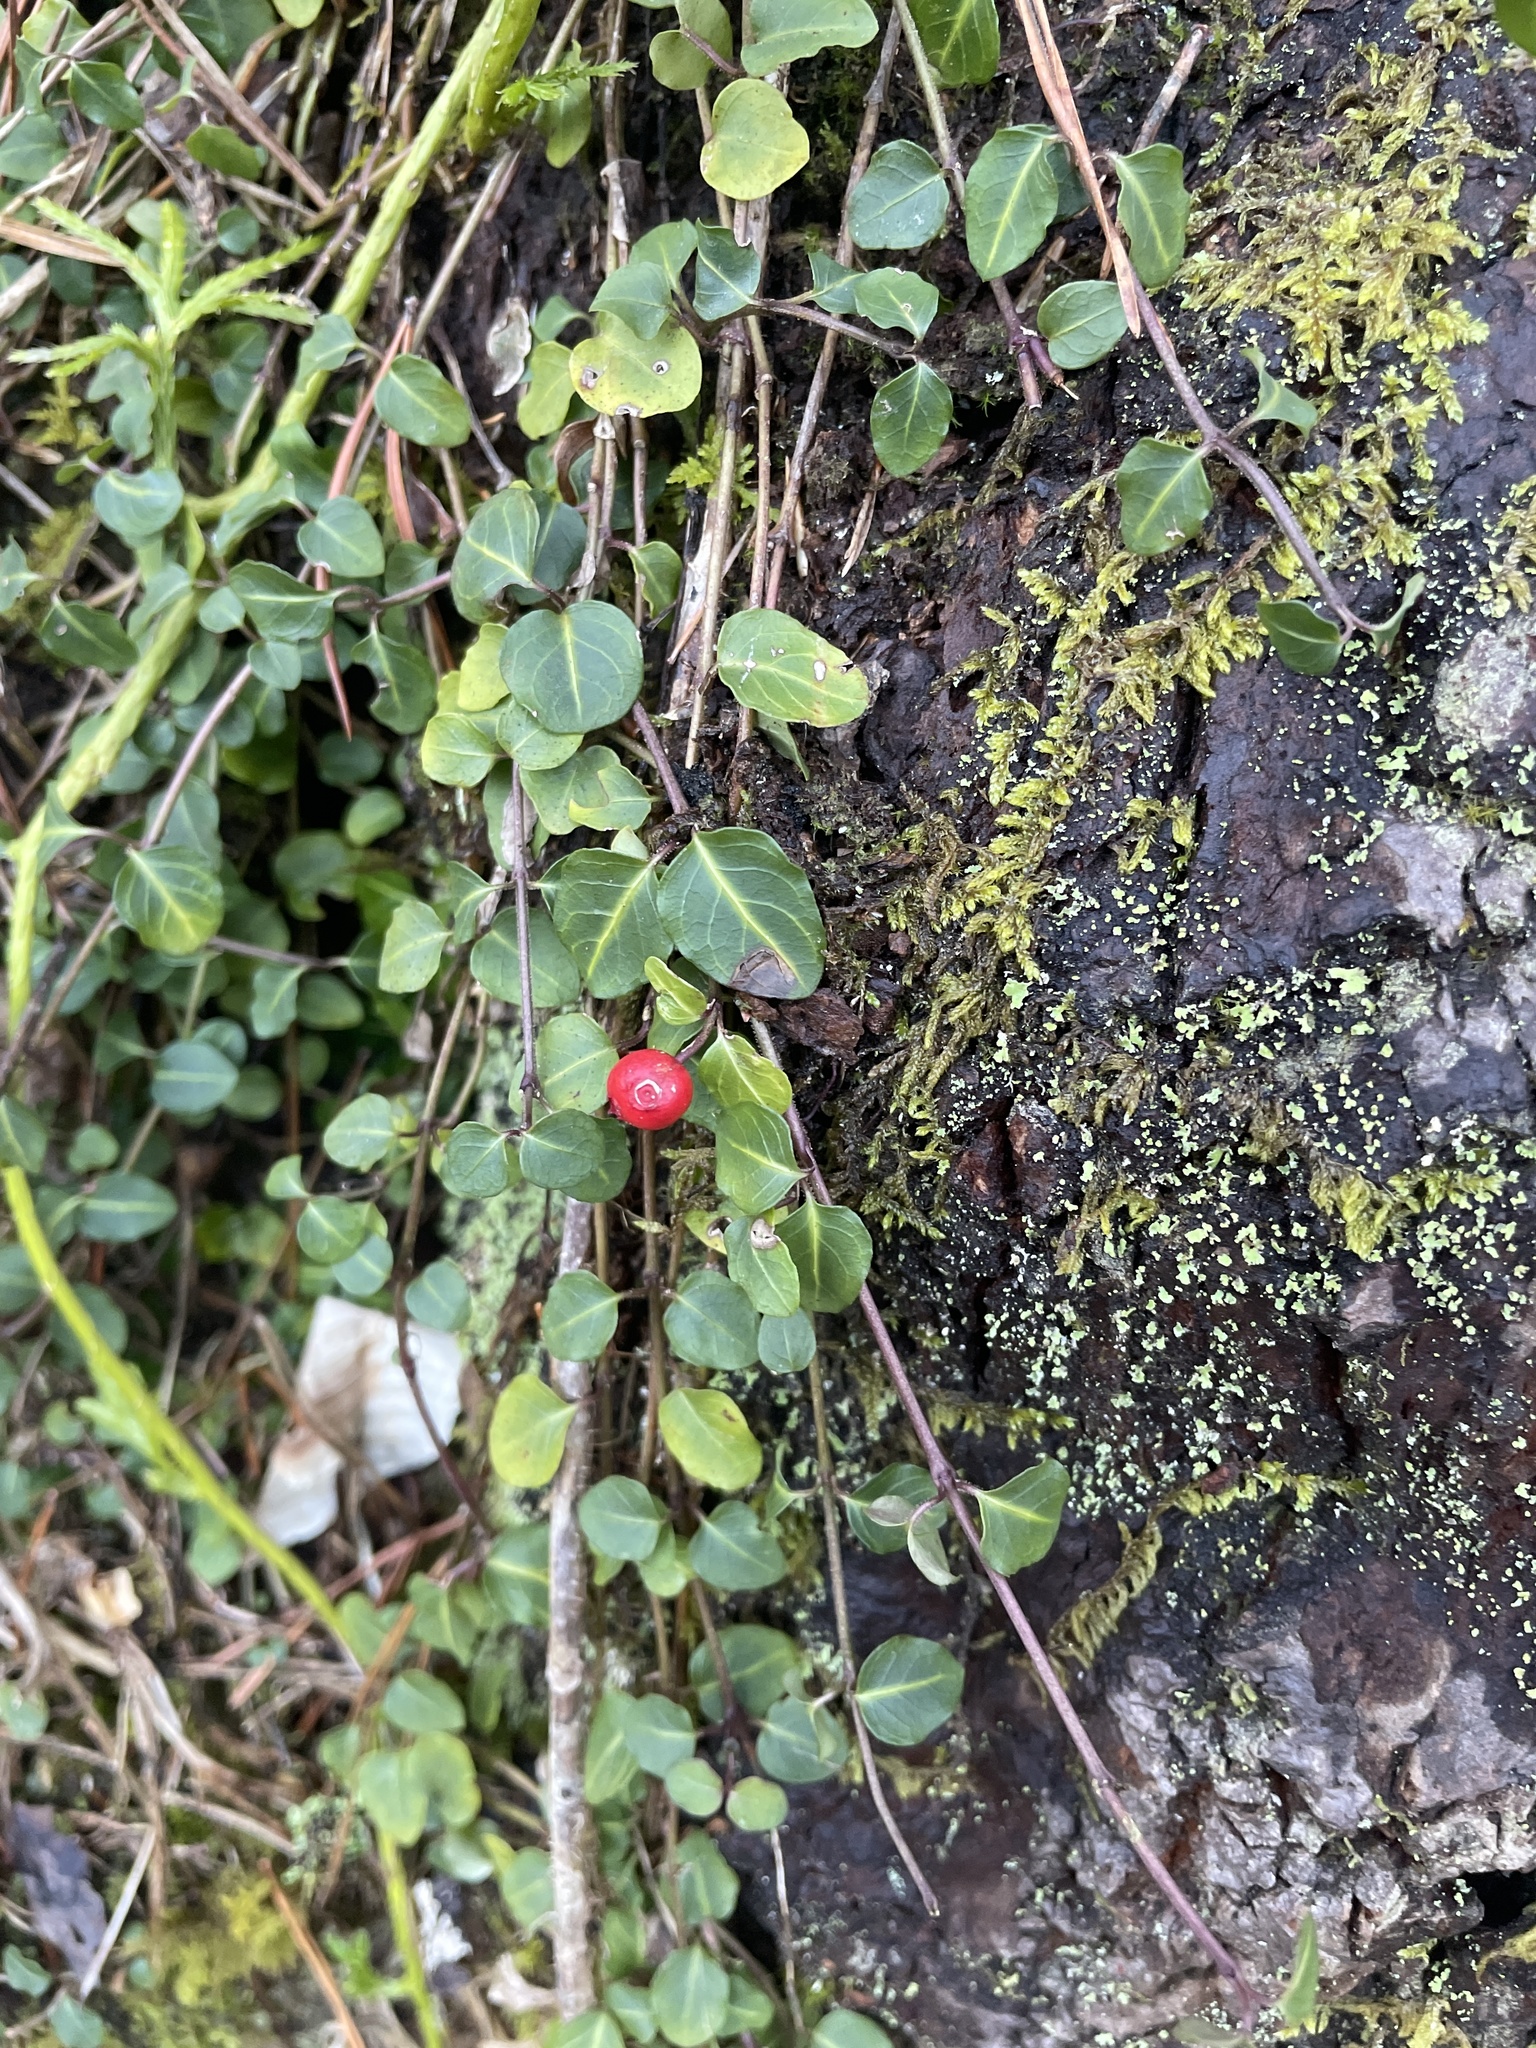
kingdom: Plantae
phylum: Tracheophyta
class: Magnoliopsida
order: Gentianales
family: Rubiaceae
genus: Mitchella
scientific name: Mitchella repens
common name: Partridge-berry
